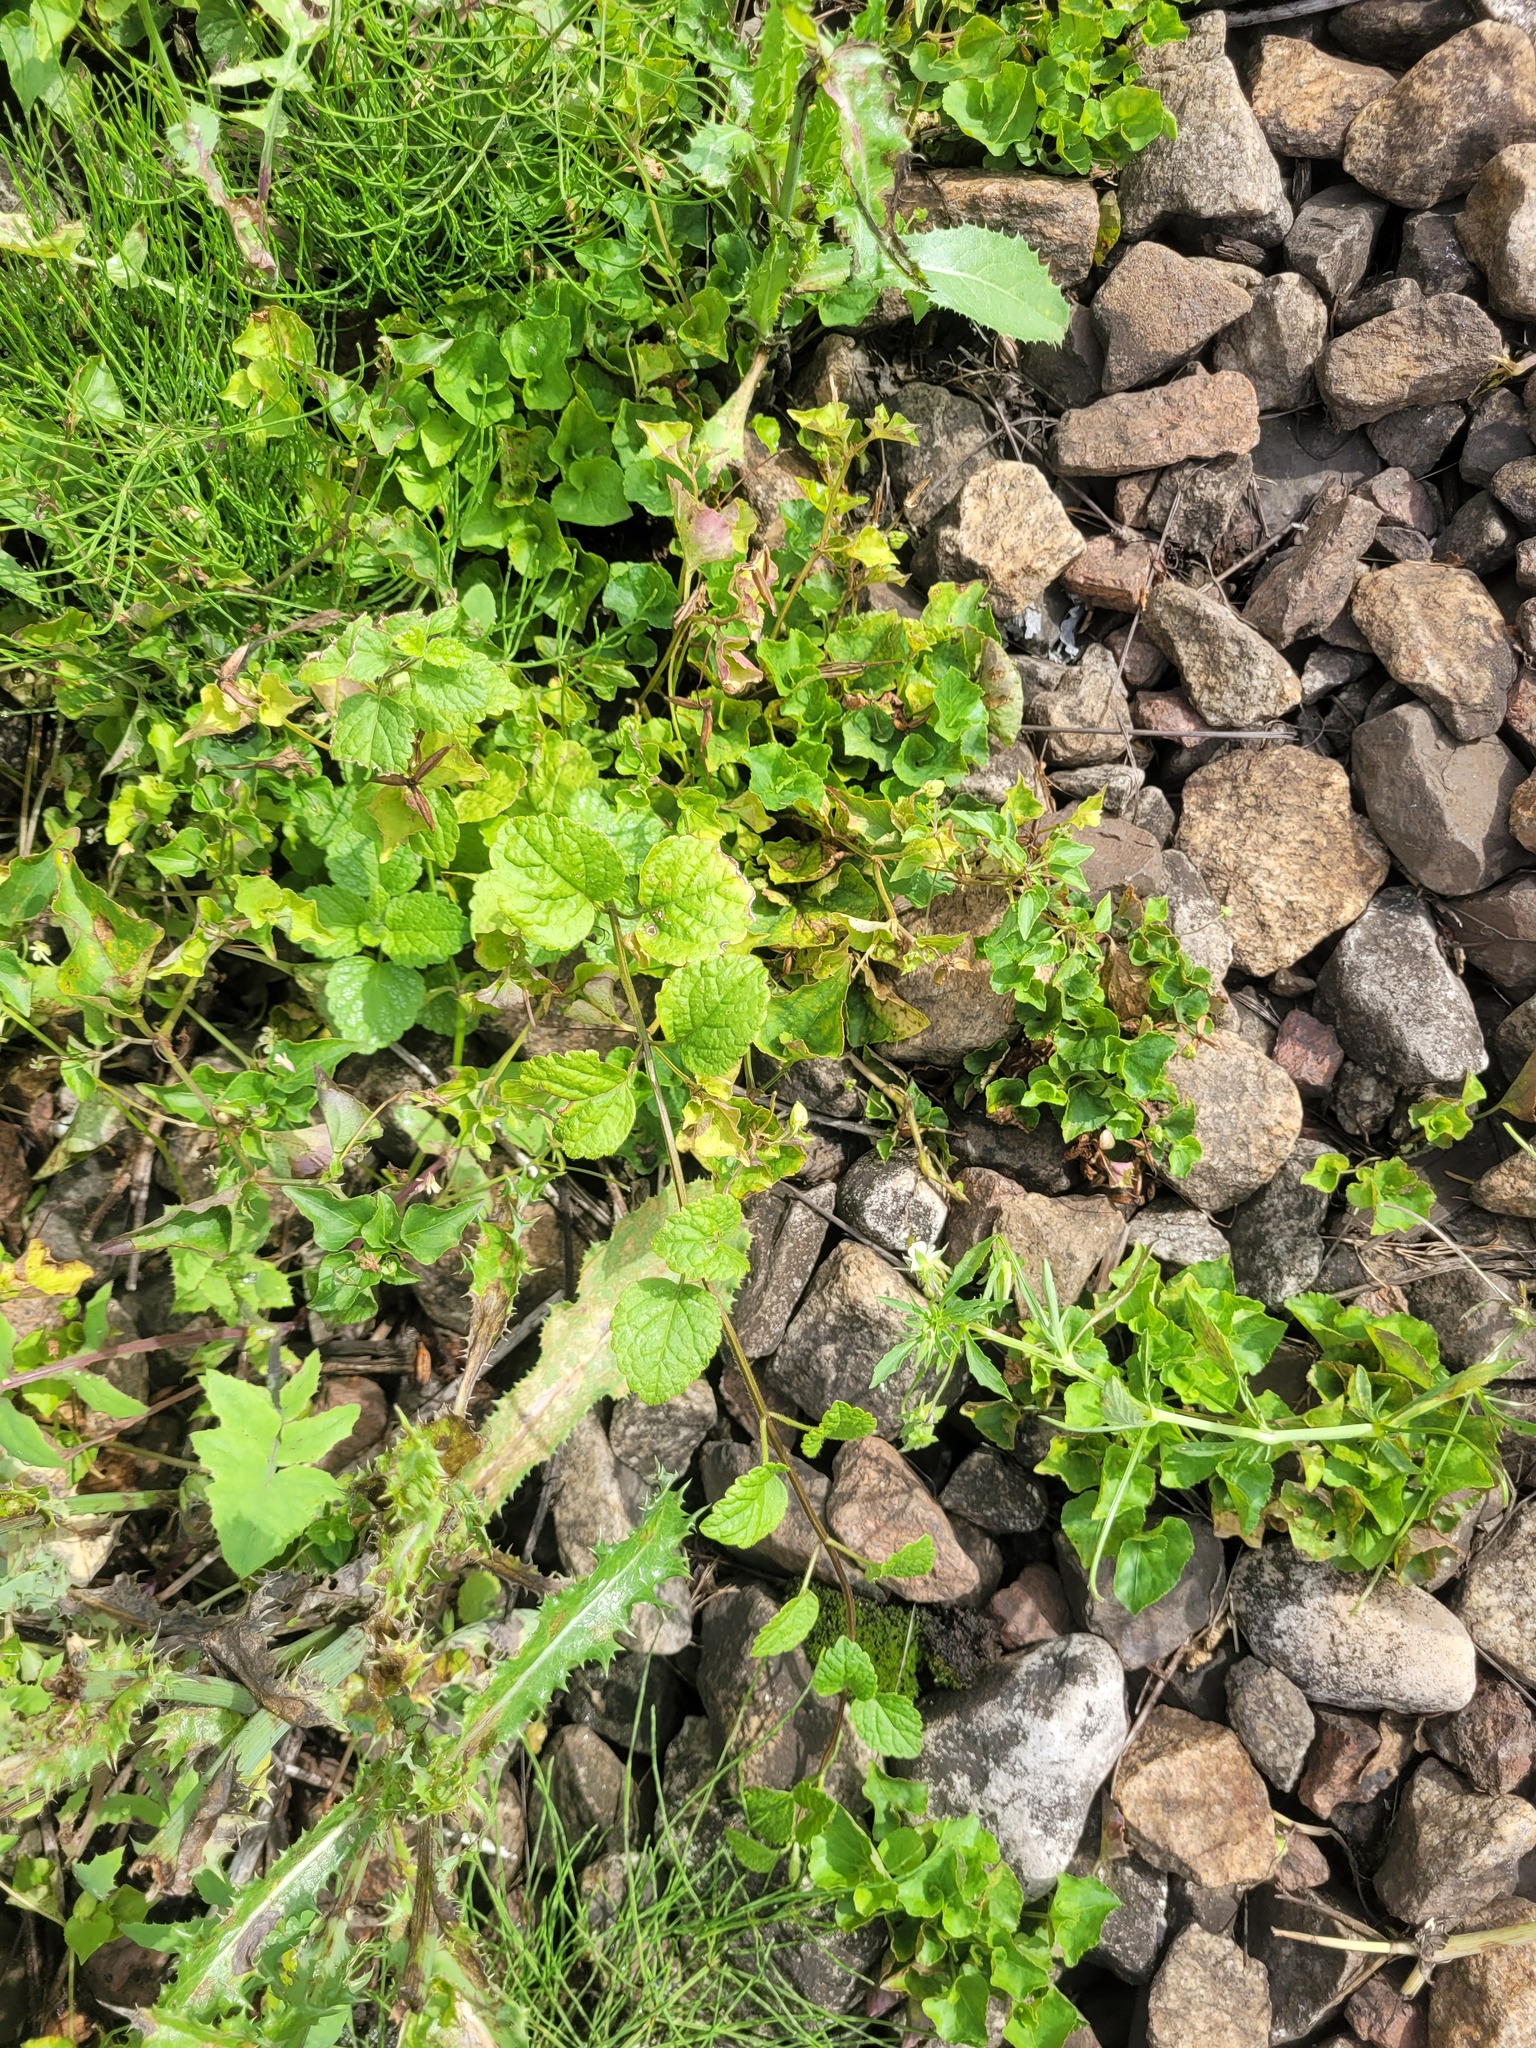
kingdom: Plantae
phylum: Tracheophyta
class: Magnoliopsida
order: Lamiales
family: Lamiaceae
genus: Lamium
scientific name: Lamium galeobdolon
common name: Yellow archangel
